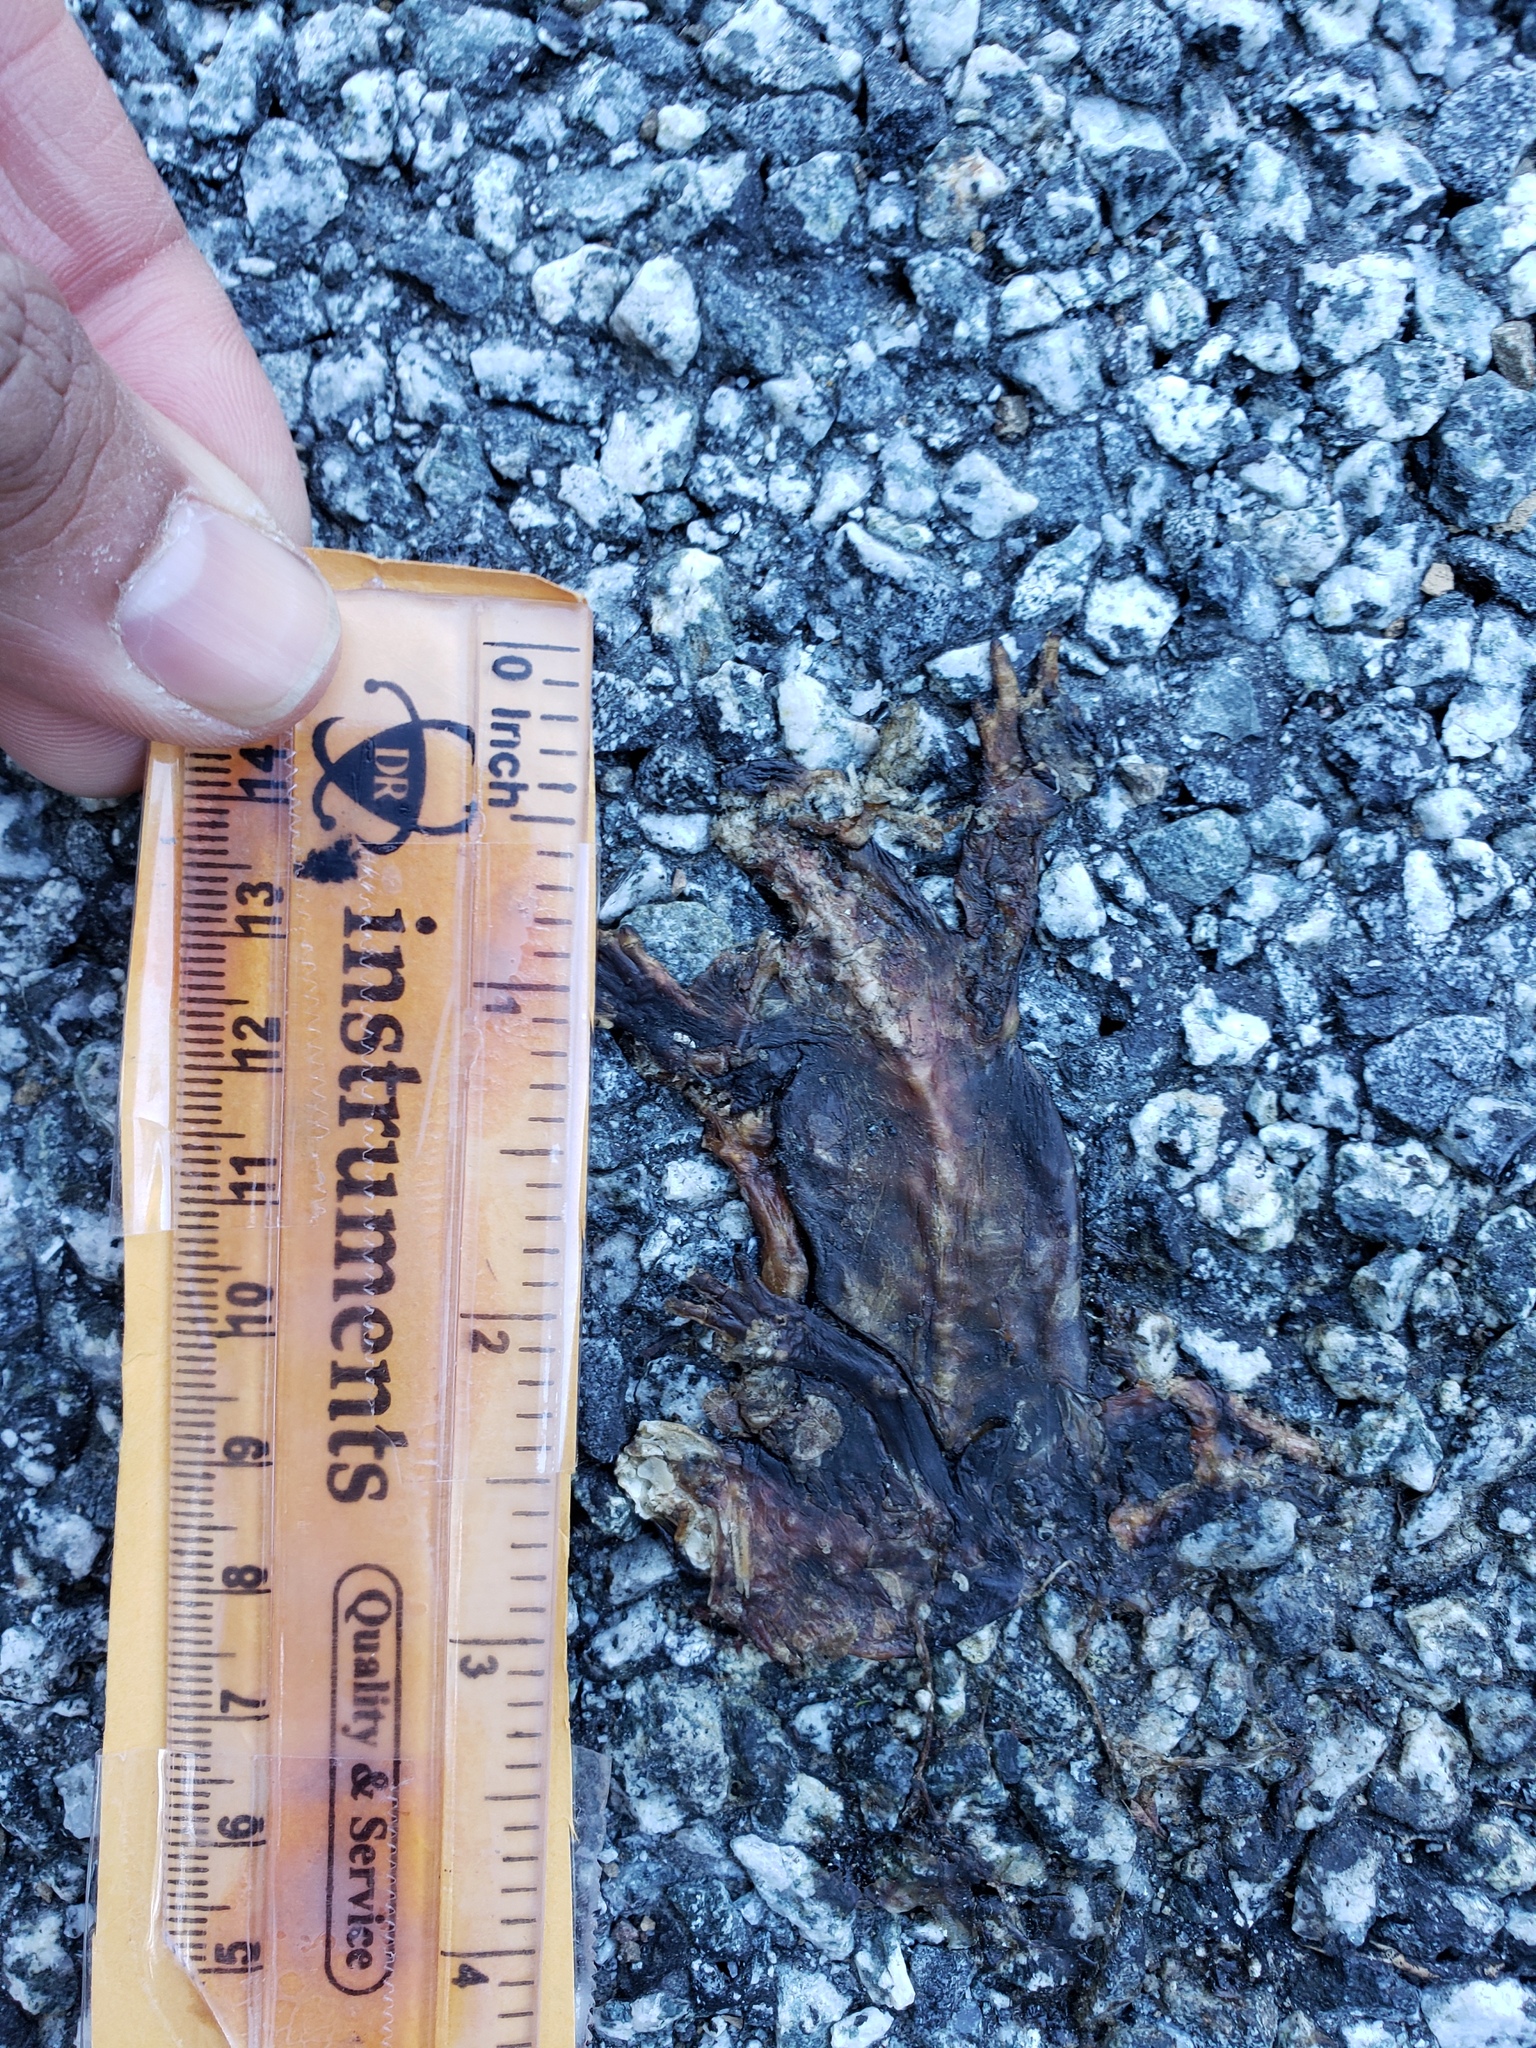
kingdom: Animalia
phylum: Chordata
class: Amphibia
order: Caudata
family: Salamandridae
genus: Taricha
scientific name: Taricha
